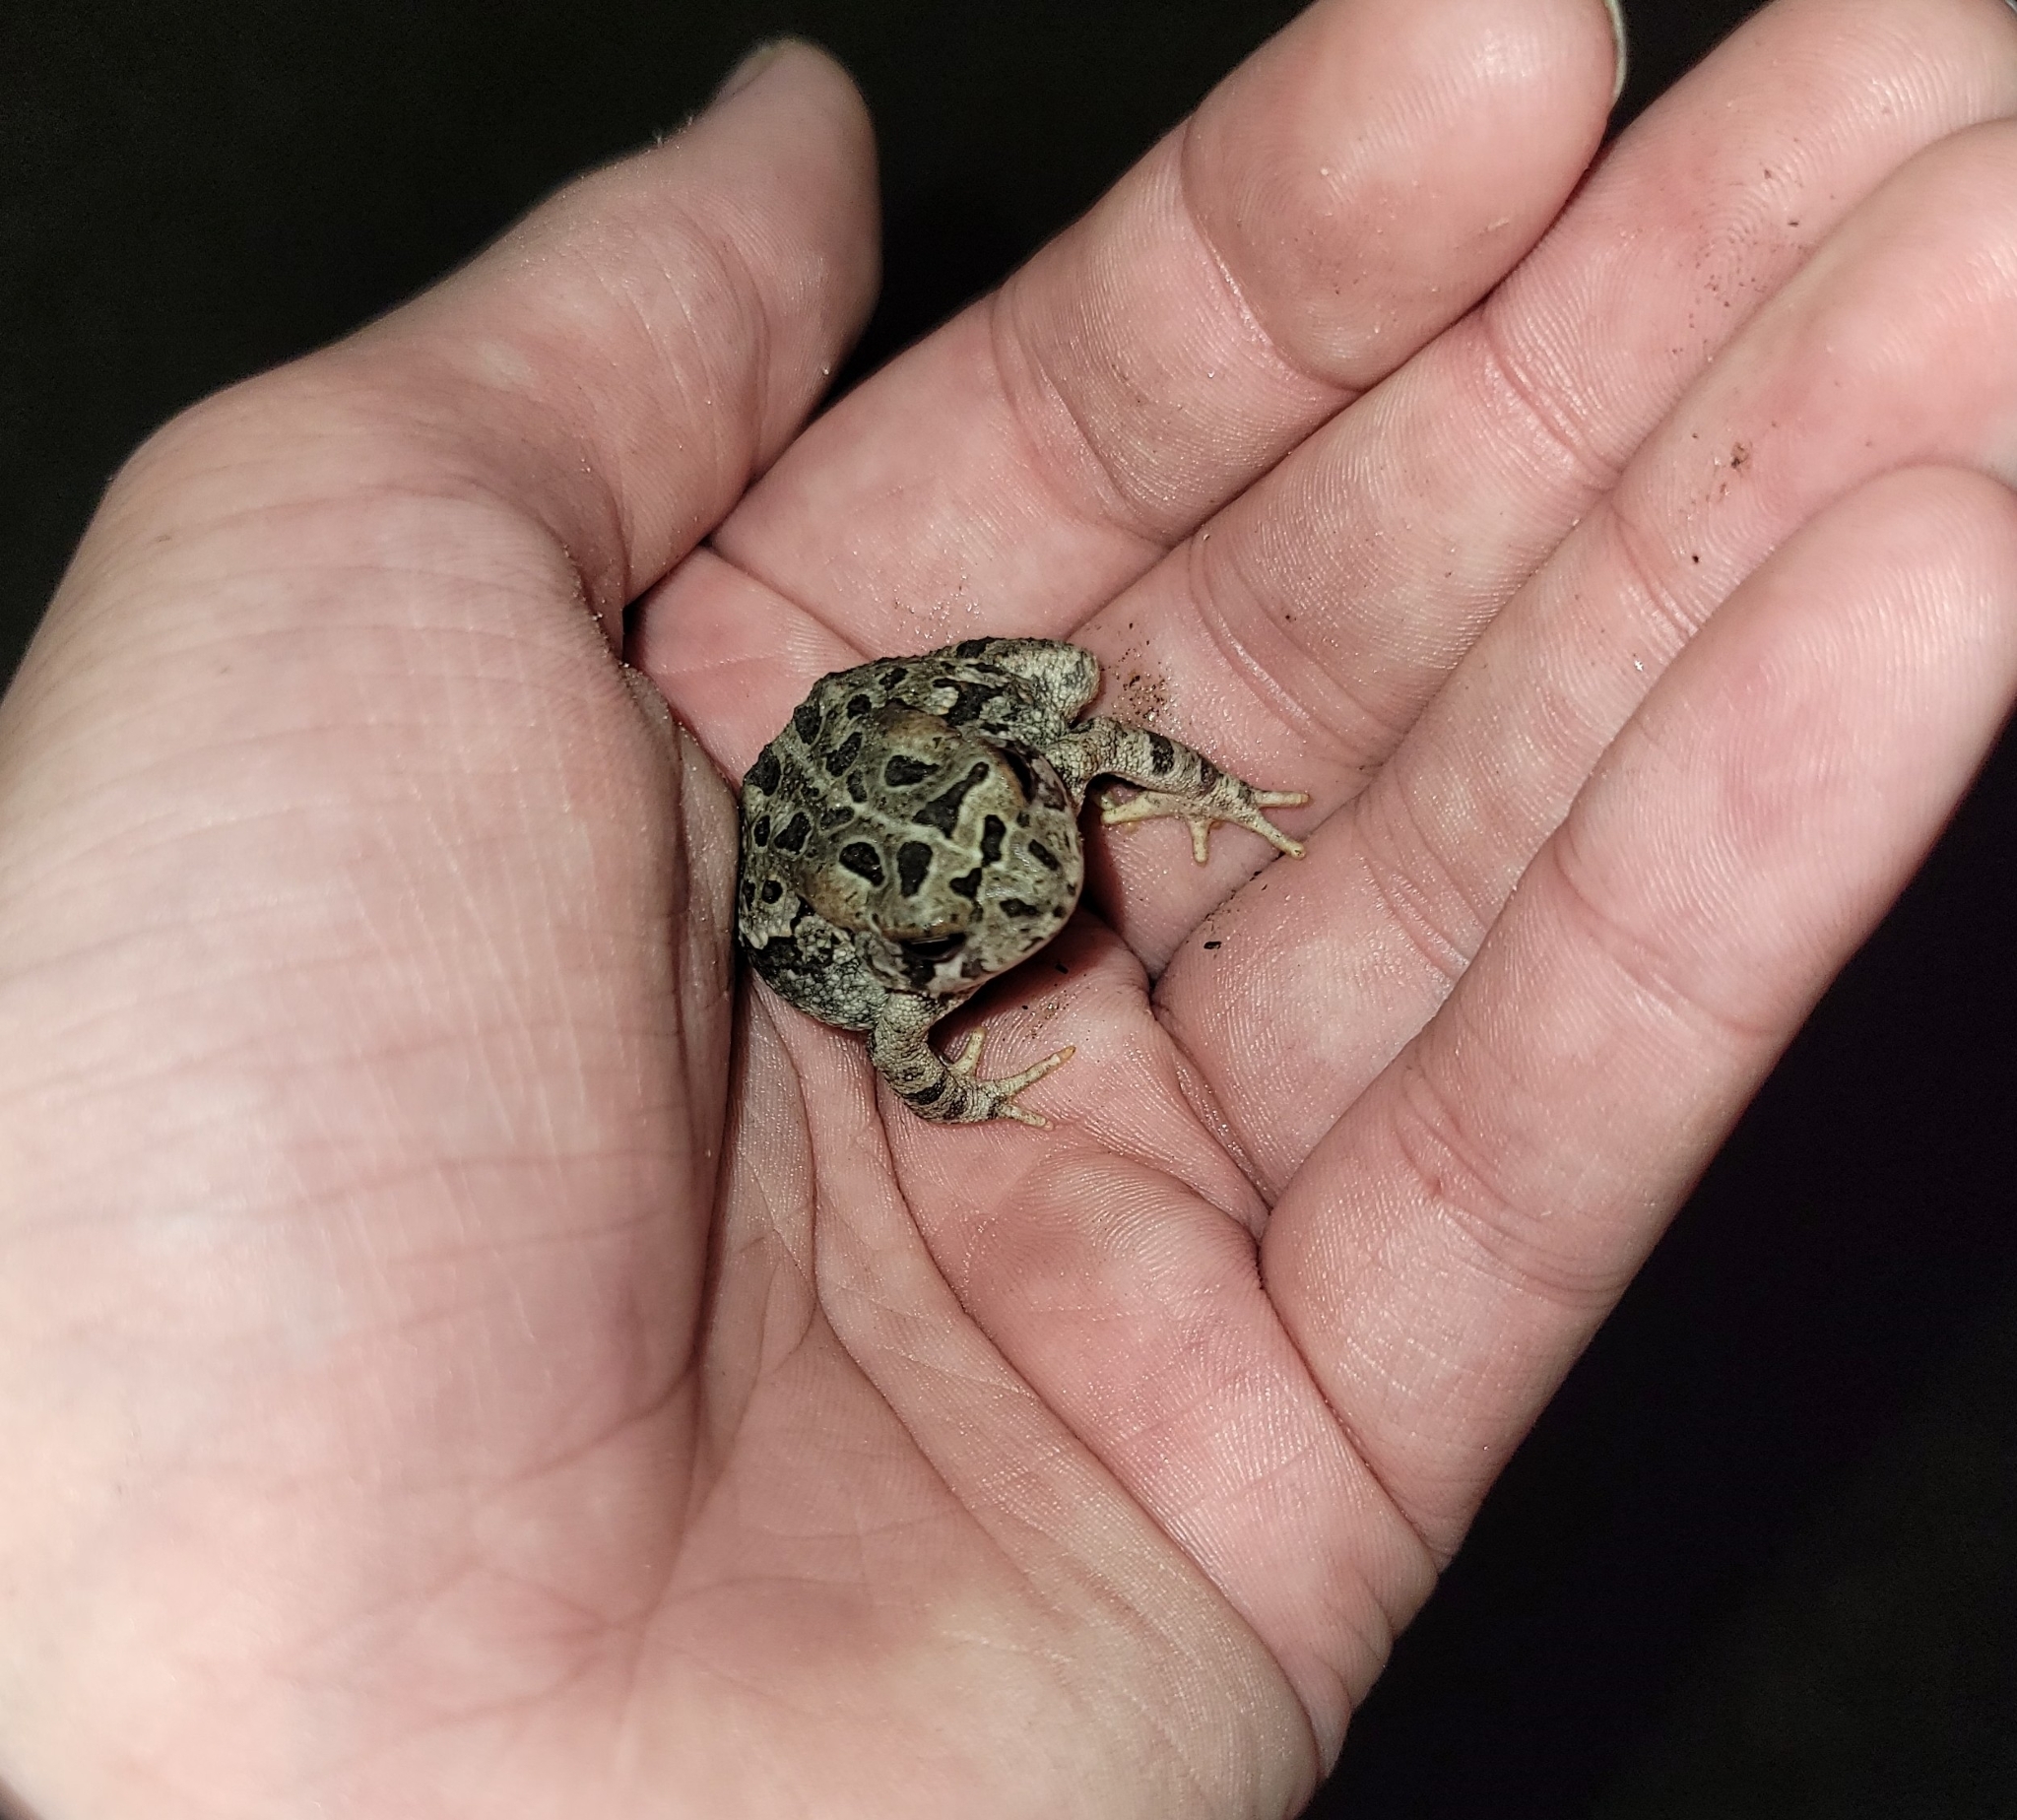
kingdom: Animalia
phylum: Chordata
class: Amphibia
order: Anura
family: Bufonidae
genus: Anaxyrus
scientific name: Anaxyrus fowleri
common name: Fowler's toad
